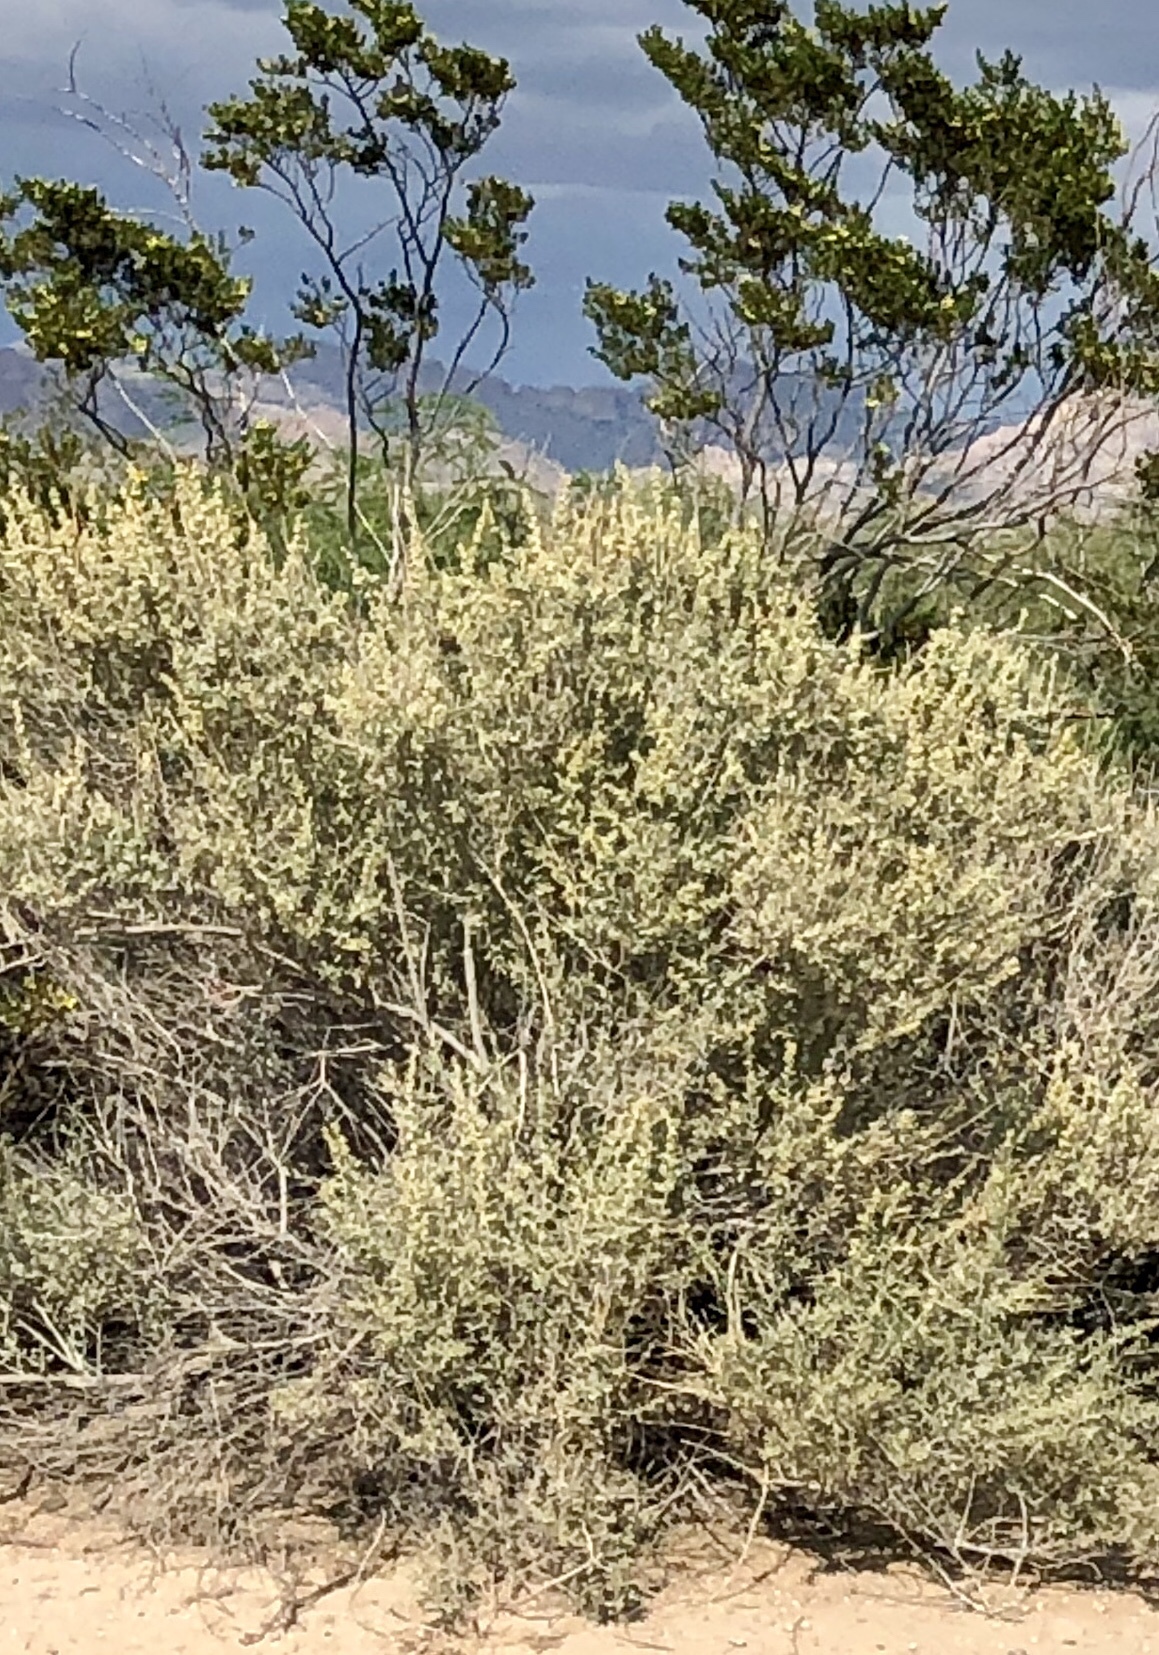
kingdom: Plantae
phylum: Tracheophyta
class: Magnoliopsida
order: Caryophyllales
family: Amaranthaceae
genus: Atriplex
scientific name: Atriplex canescens
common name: Four-wing saltbush
